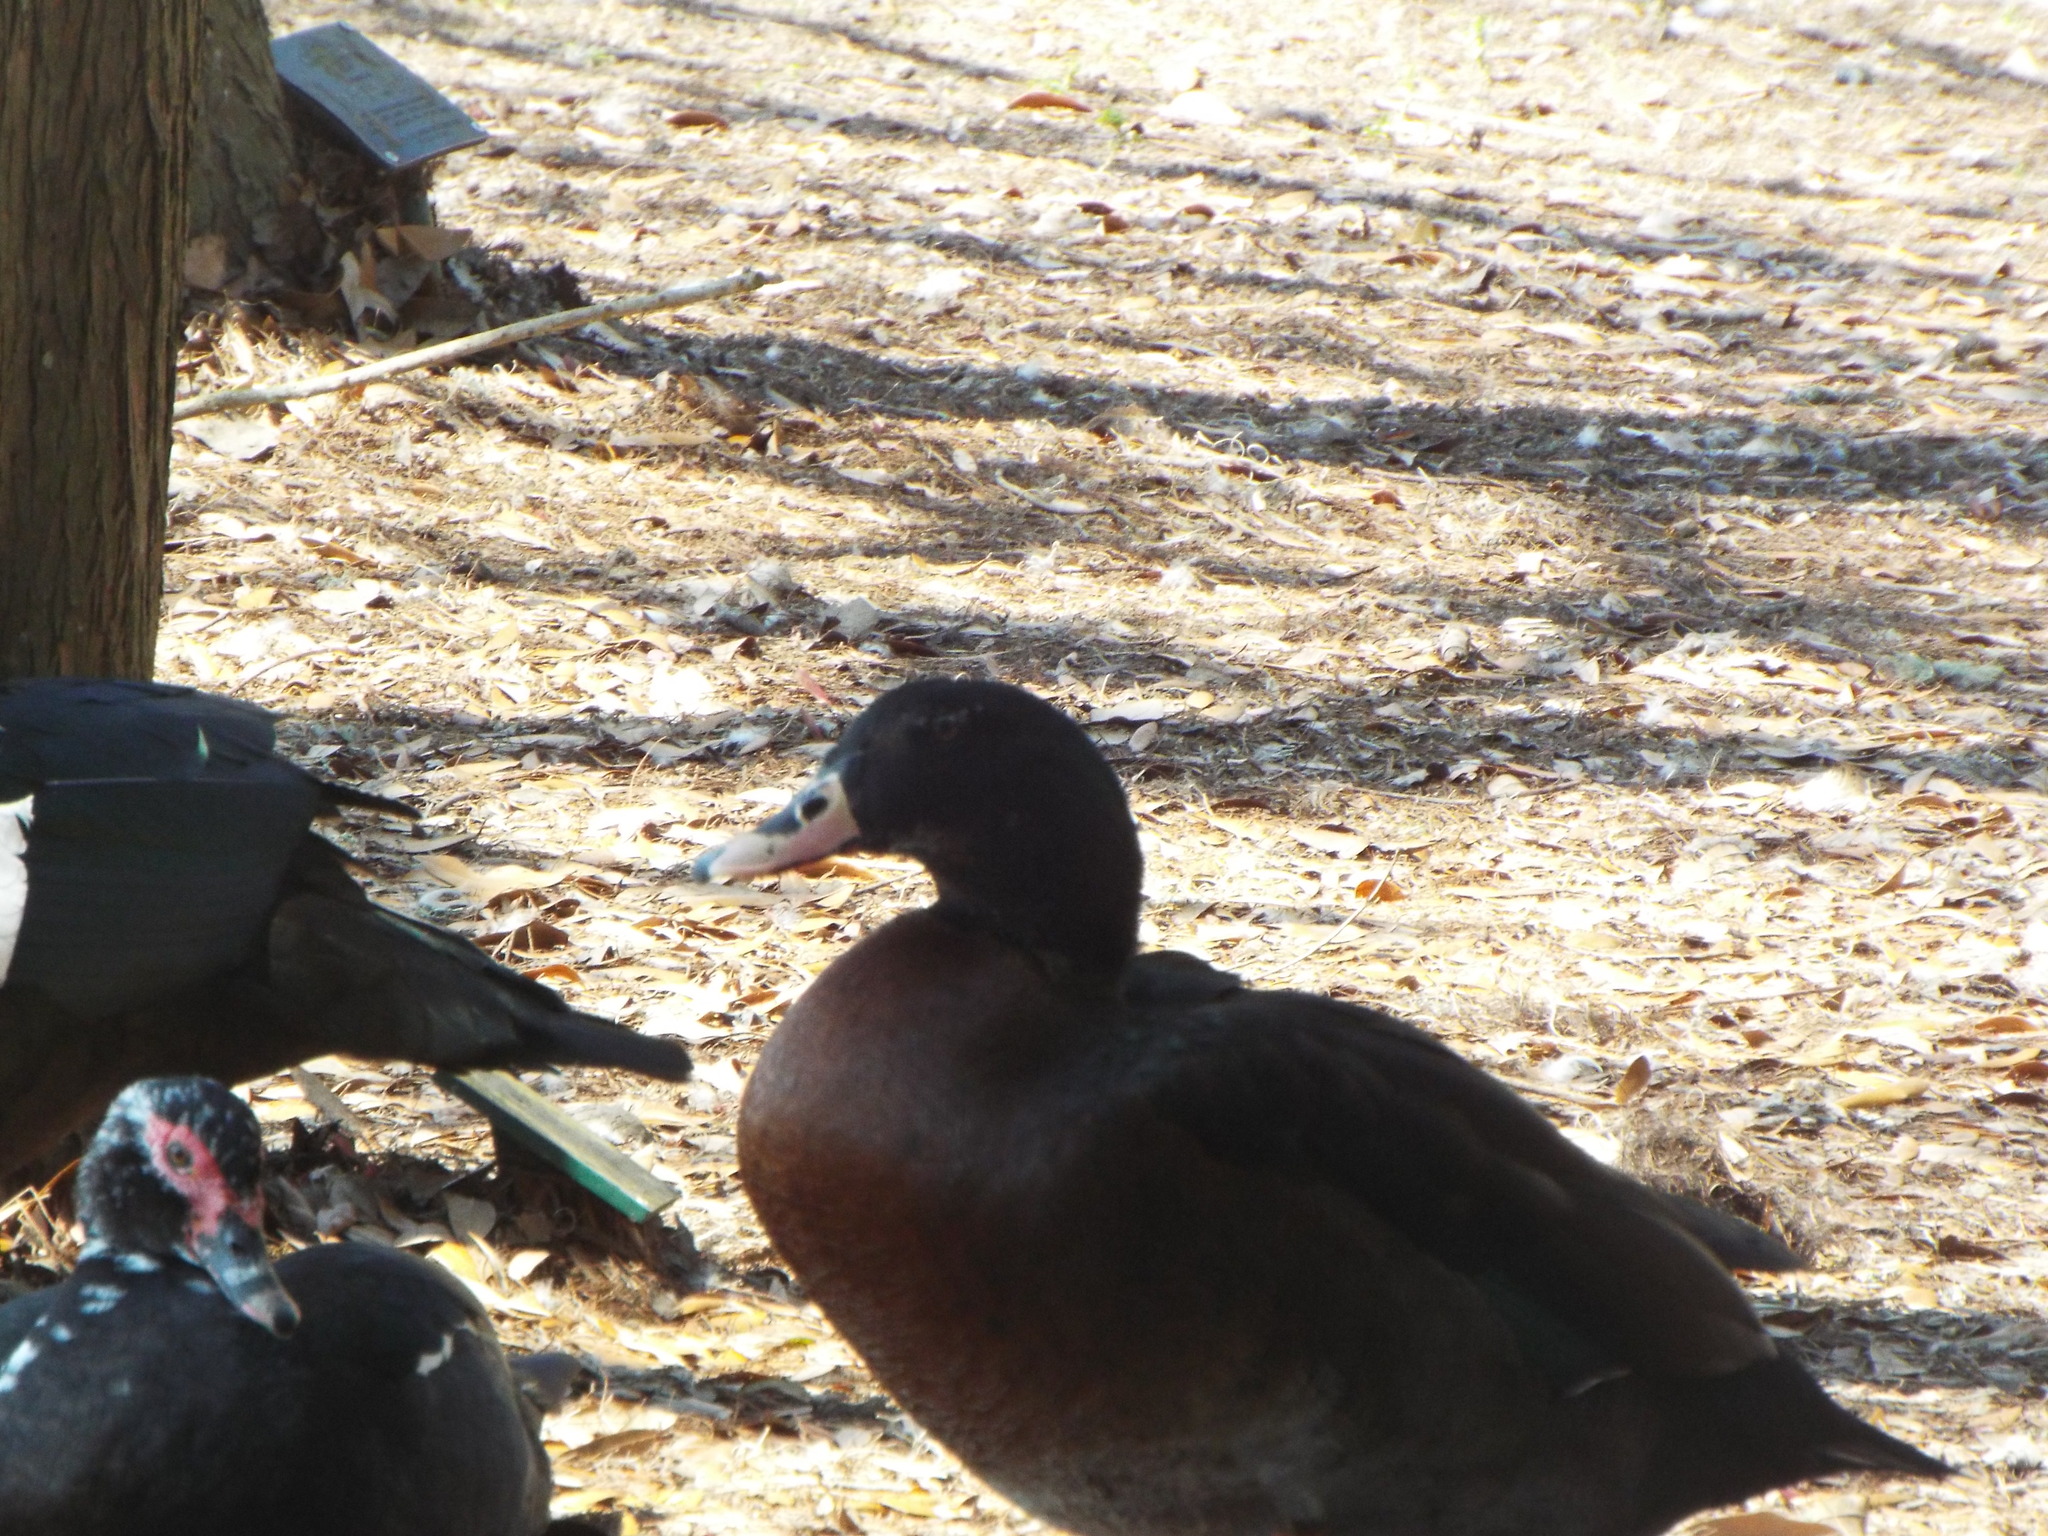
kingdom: Animalia
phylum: Chordata
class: Aves
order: Anseriformes
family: Anatidae
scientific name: Anatidae
